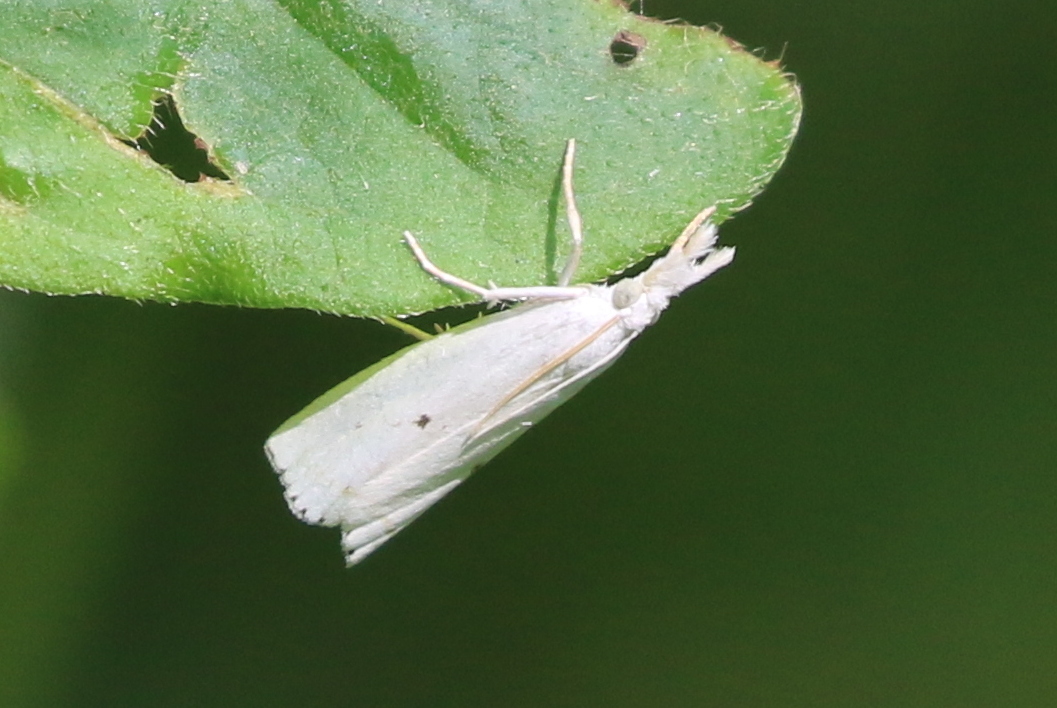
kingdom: Animalia
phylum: Arthropoda
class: Insecta
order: Lepidoptera
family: Crambidae
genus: Microcrambus
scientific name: Microcrambus biguttellus
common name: Gold-stripe grass-veneer moth
